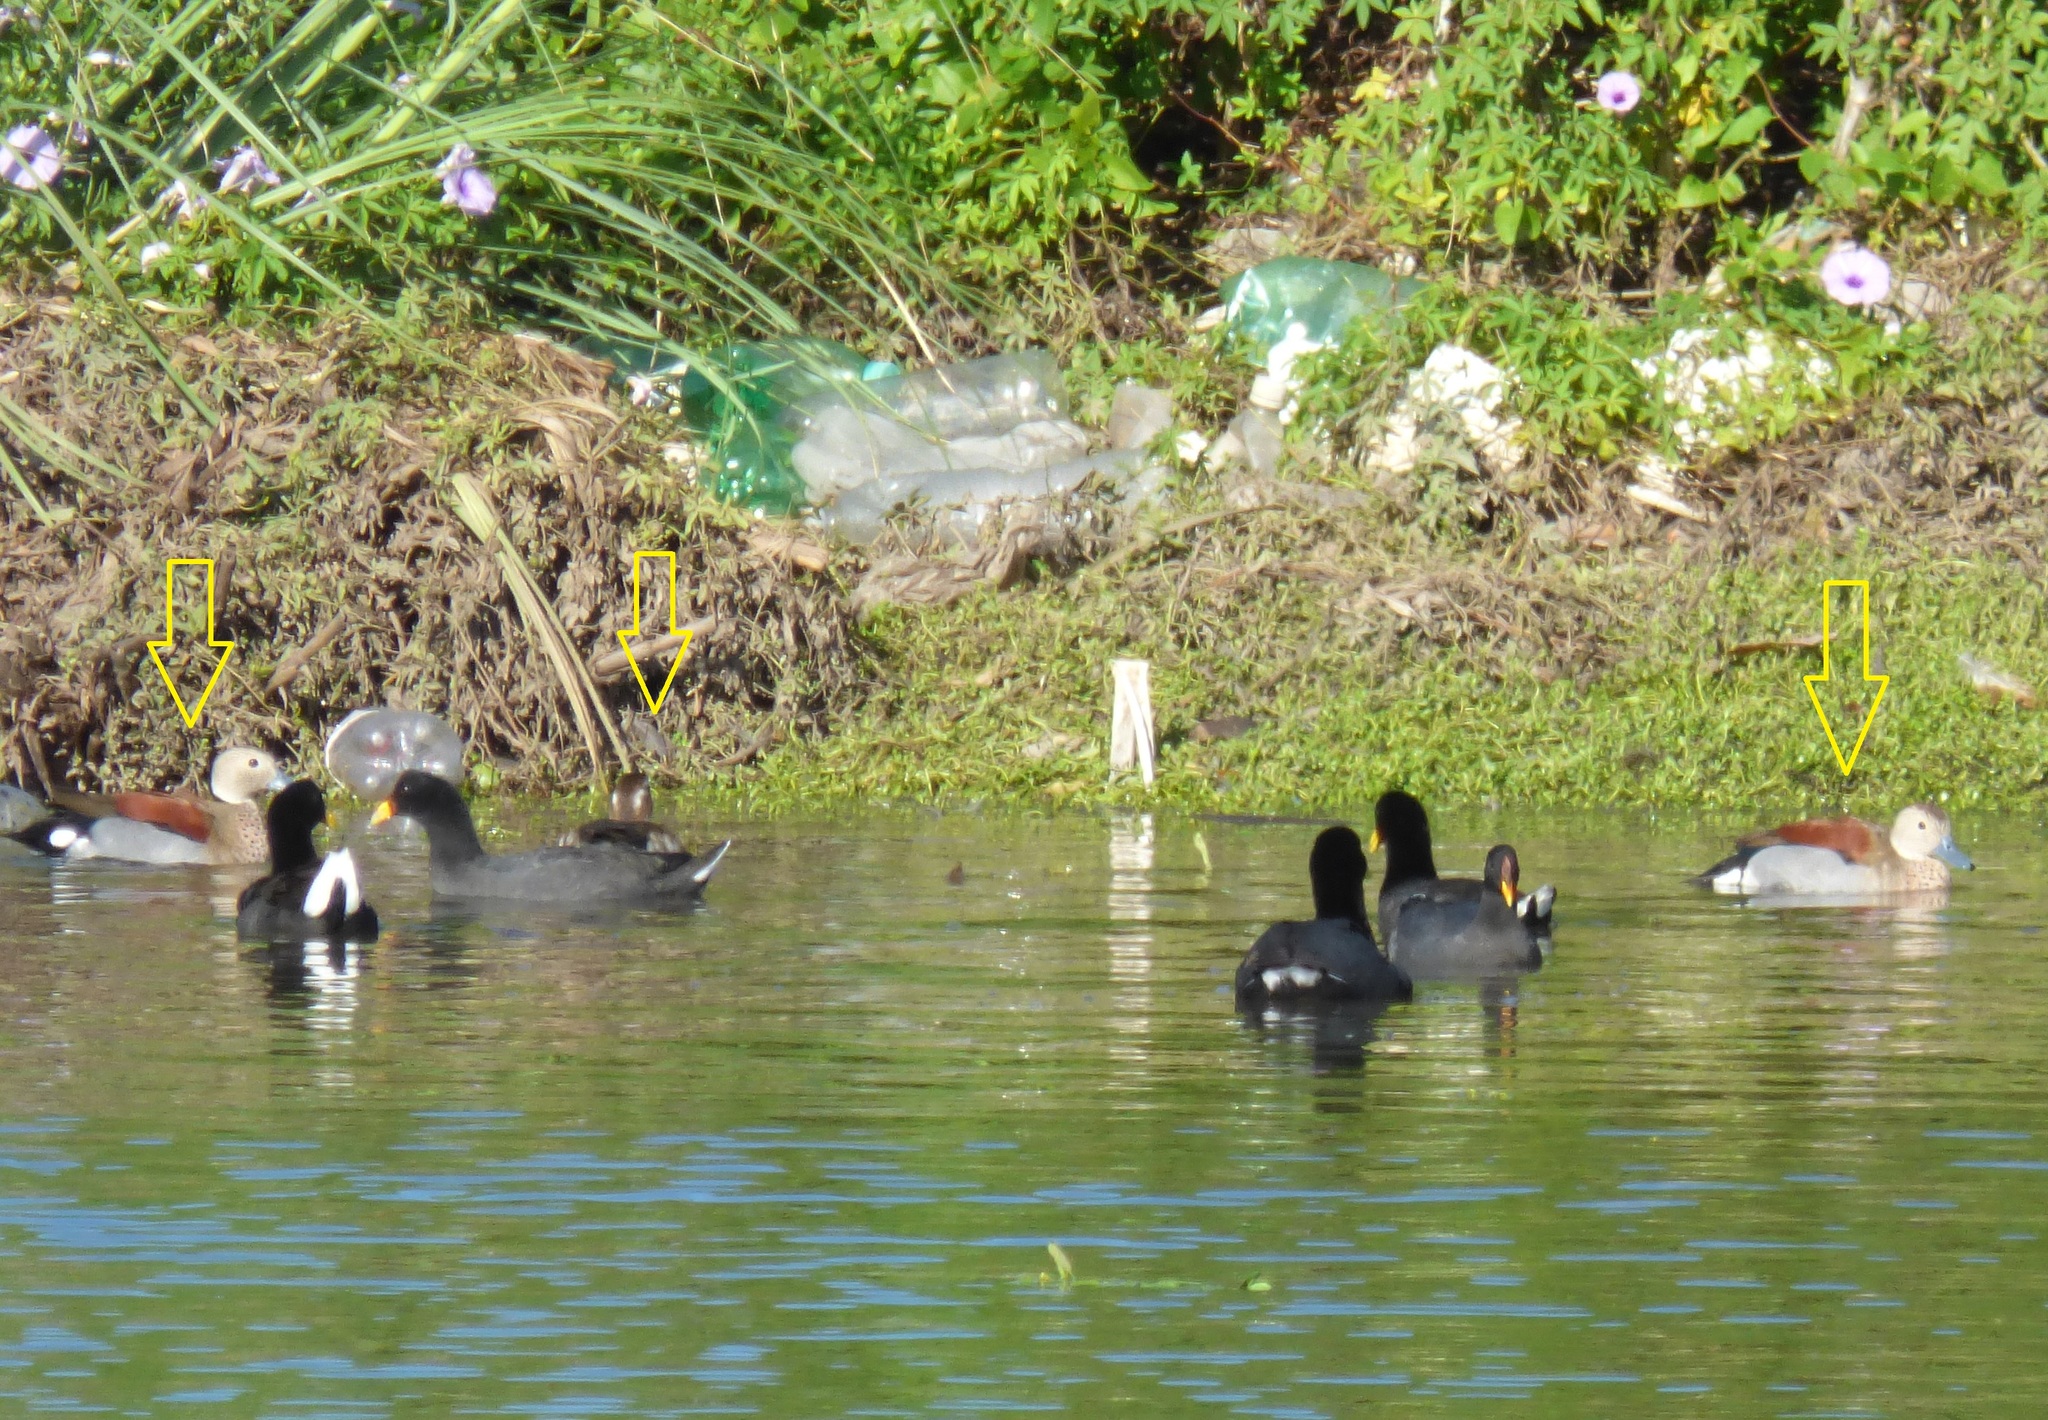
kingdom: Animalia
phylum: Chordata
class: Aves
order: Anseriformes
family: Anatidae
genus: Callonetta
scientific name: Callonetta leucophrys
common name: Ringed teal
